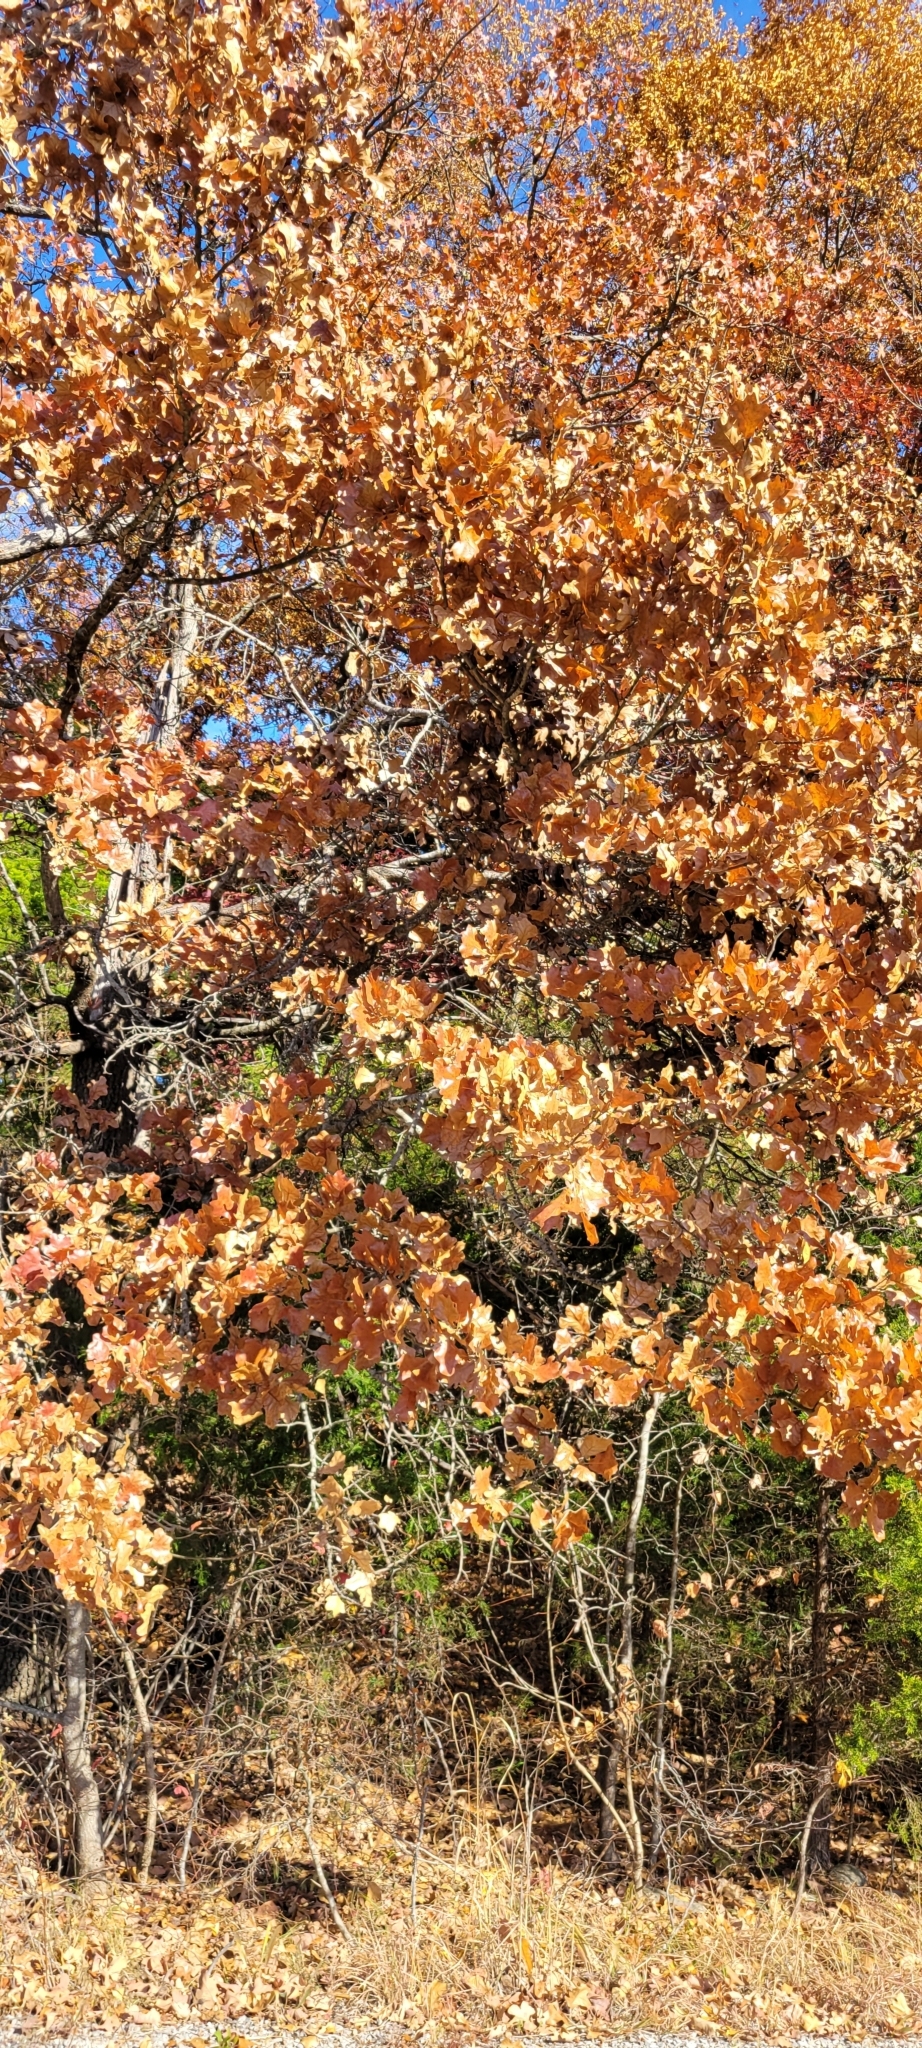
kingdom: Plantae
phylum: Tracheophyta
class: Magnoliopsida
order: Fagales
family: Fagaceae
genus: Quercus
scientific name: Quercus marilandica
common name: Blackjack oak
